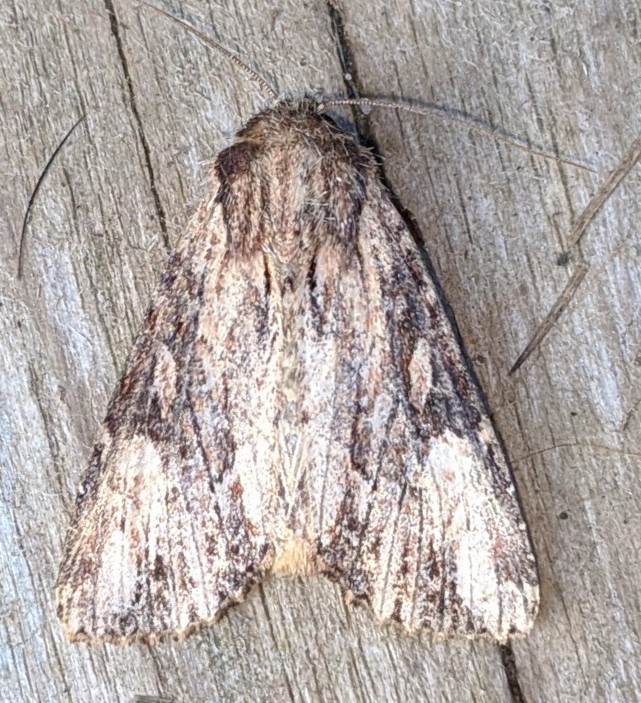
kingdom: Animalia
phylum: Arthropoda
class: Insecta
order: Lepidoptera
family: Noctuidae
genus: Apamea
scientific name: Apamea lignicolora
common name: Wood-colored apamea moth
